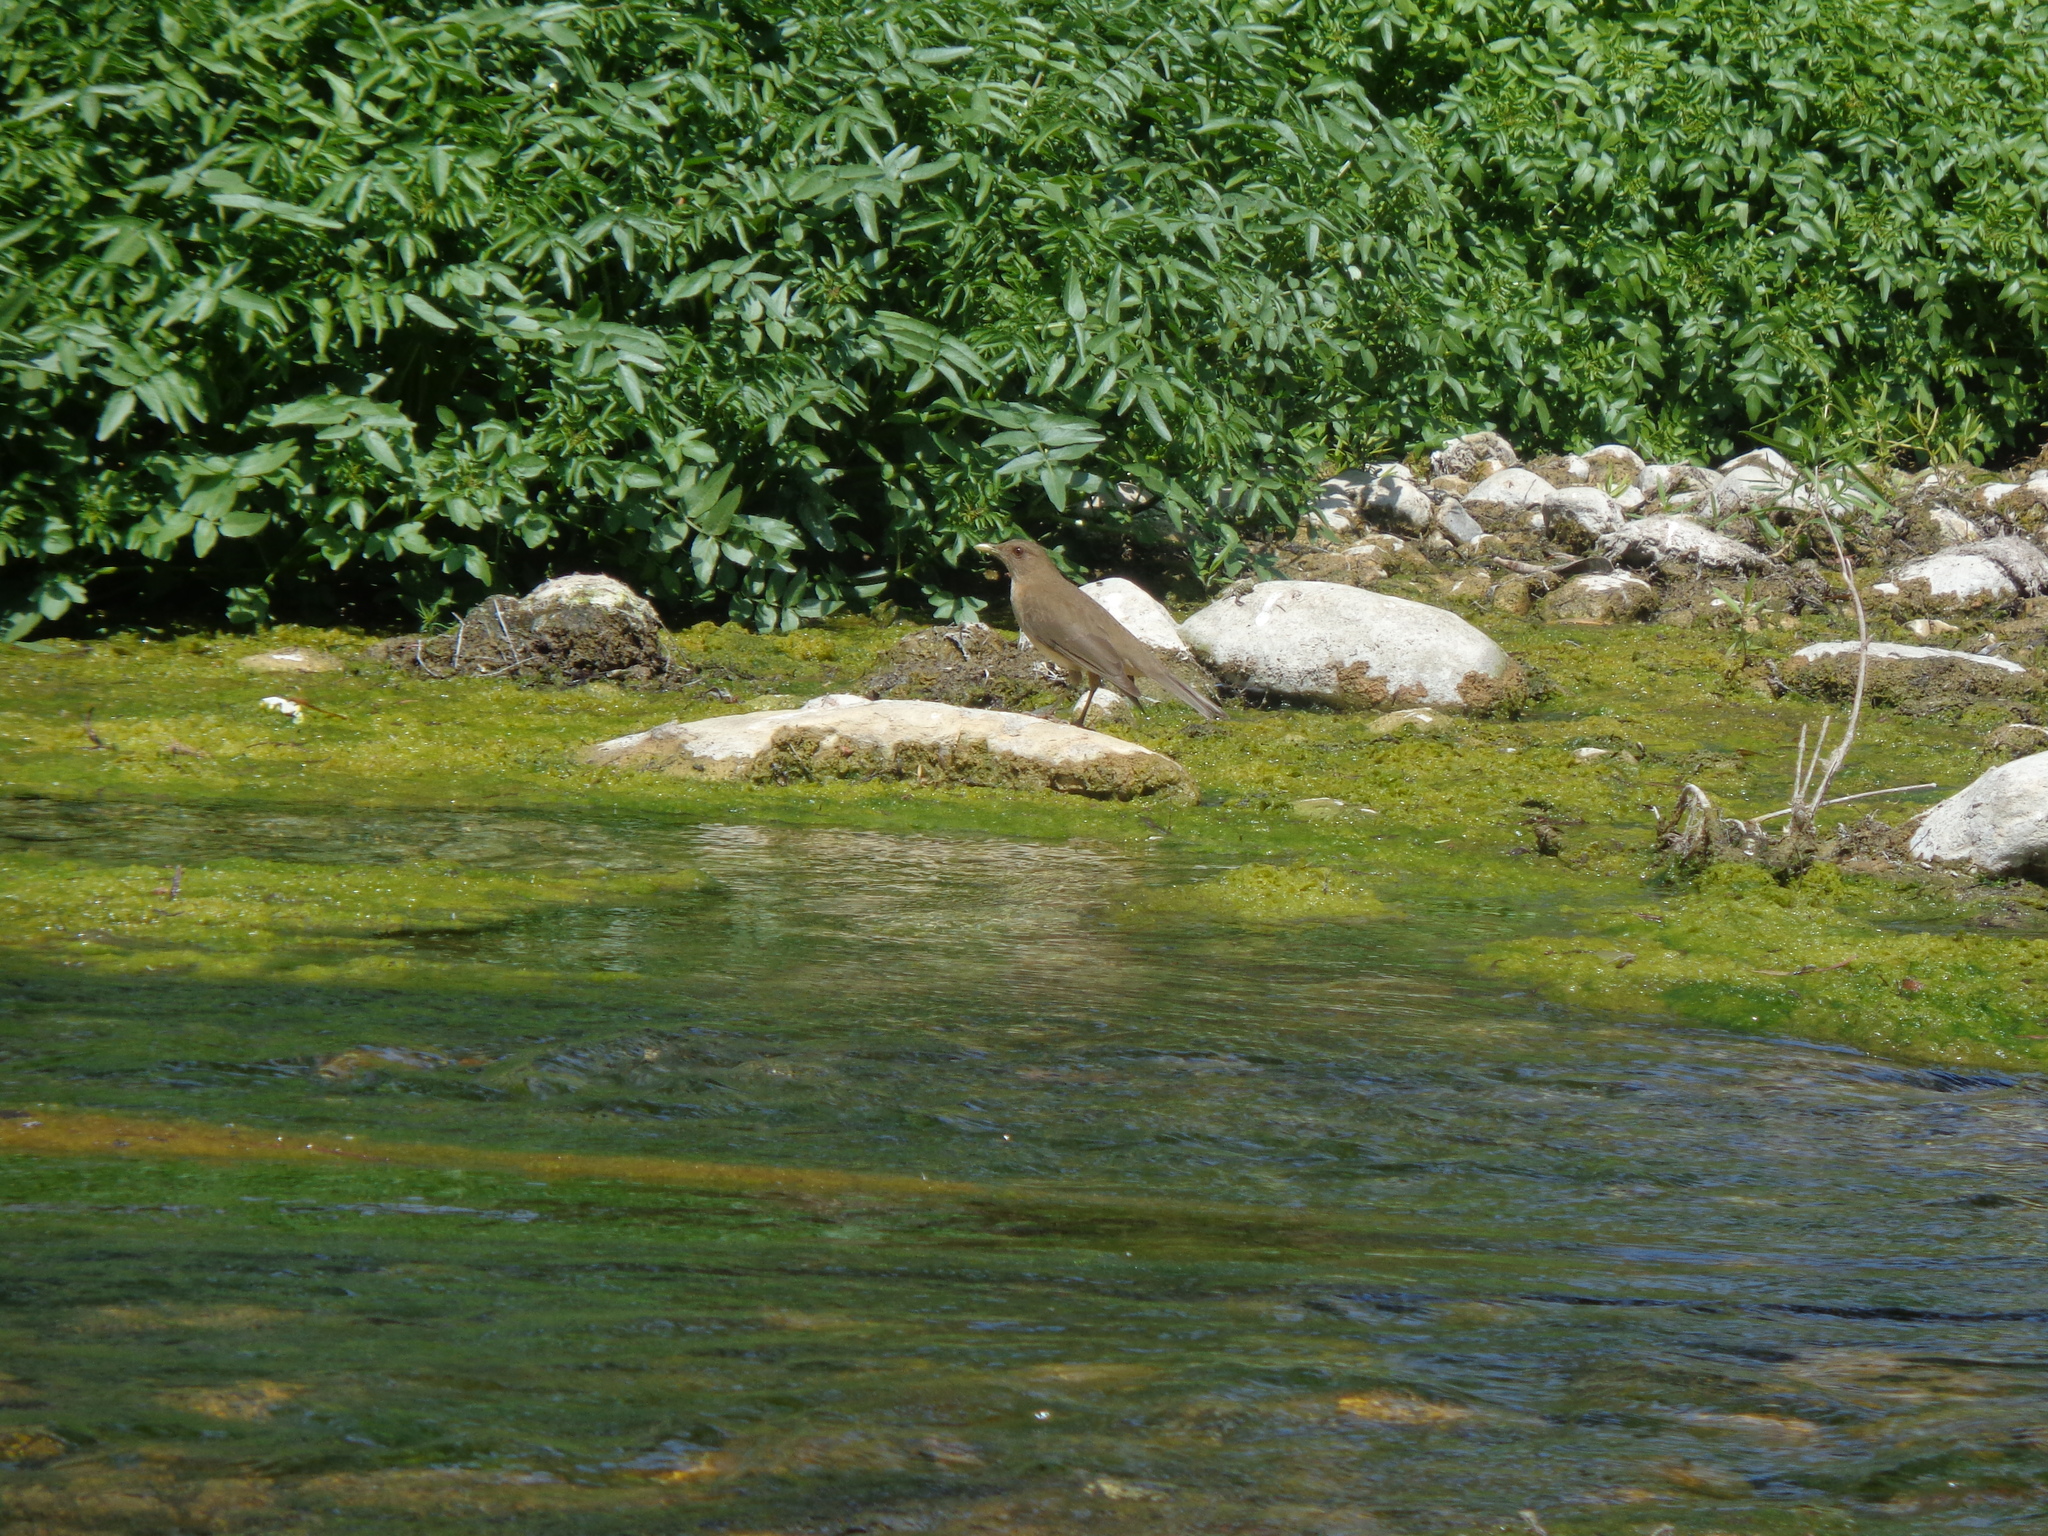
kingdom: Animalia
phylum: Chordata
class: Aves
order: Passeriformes
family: Turdidae
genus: Turdus
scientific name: Turdus grayi
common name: Clay-colored thrush
